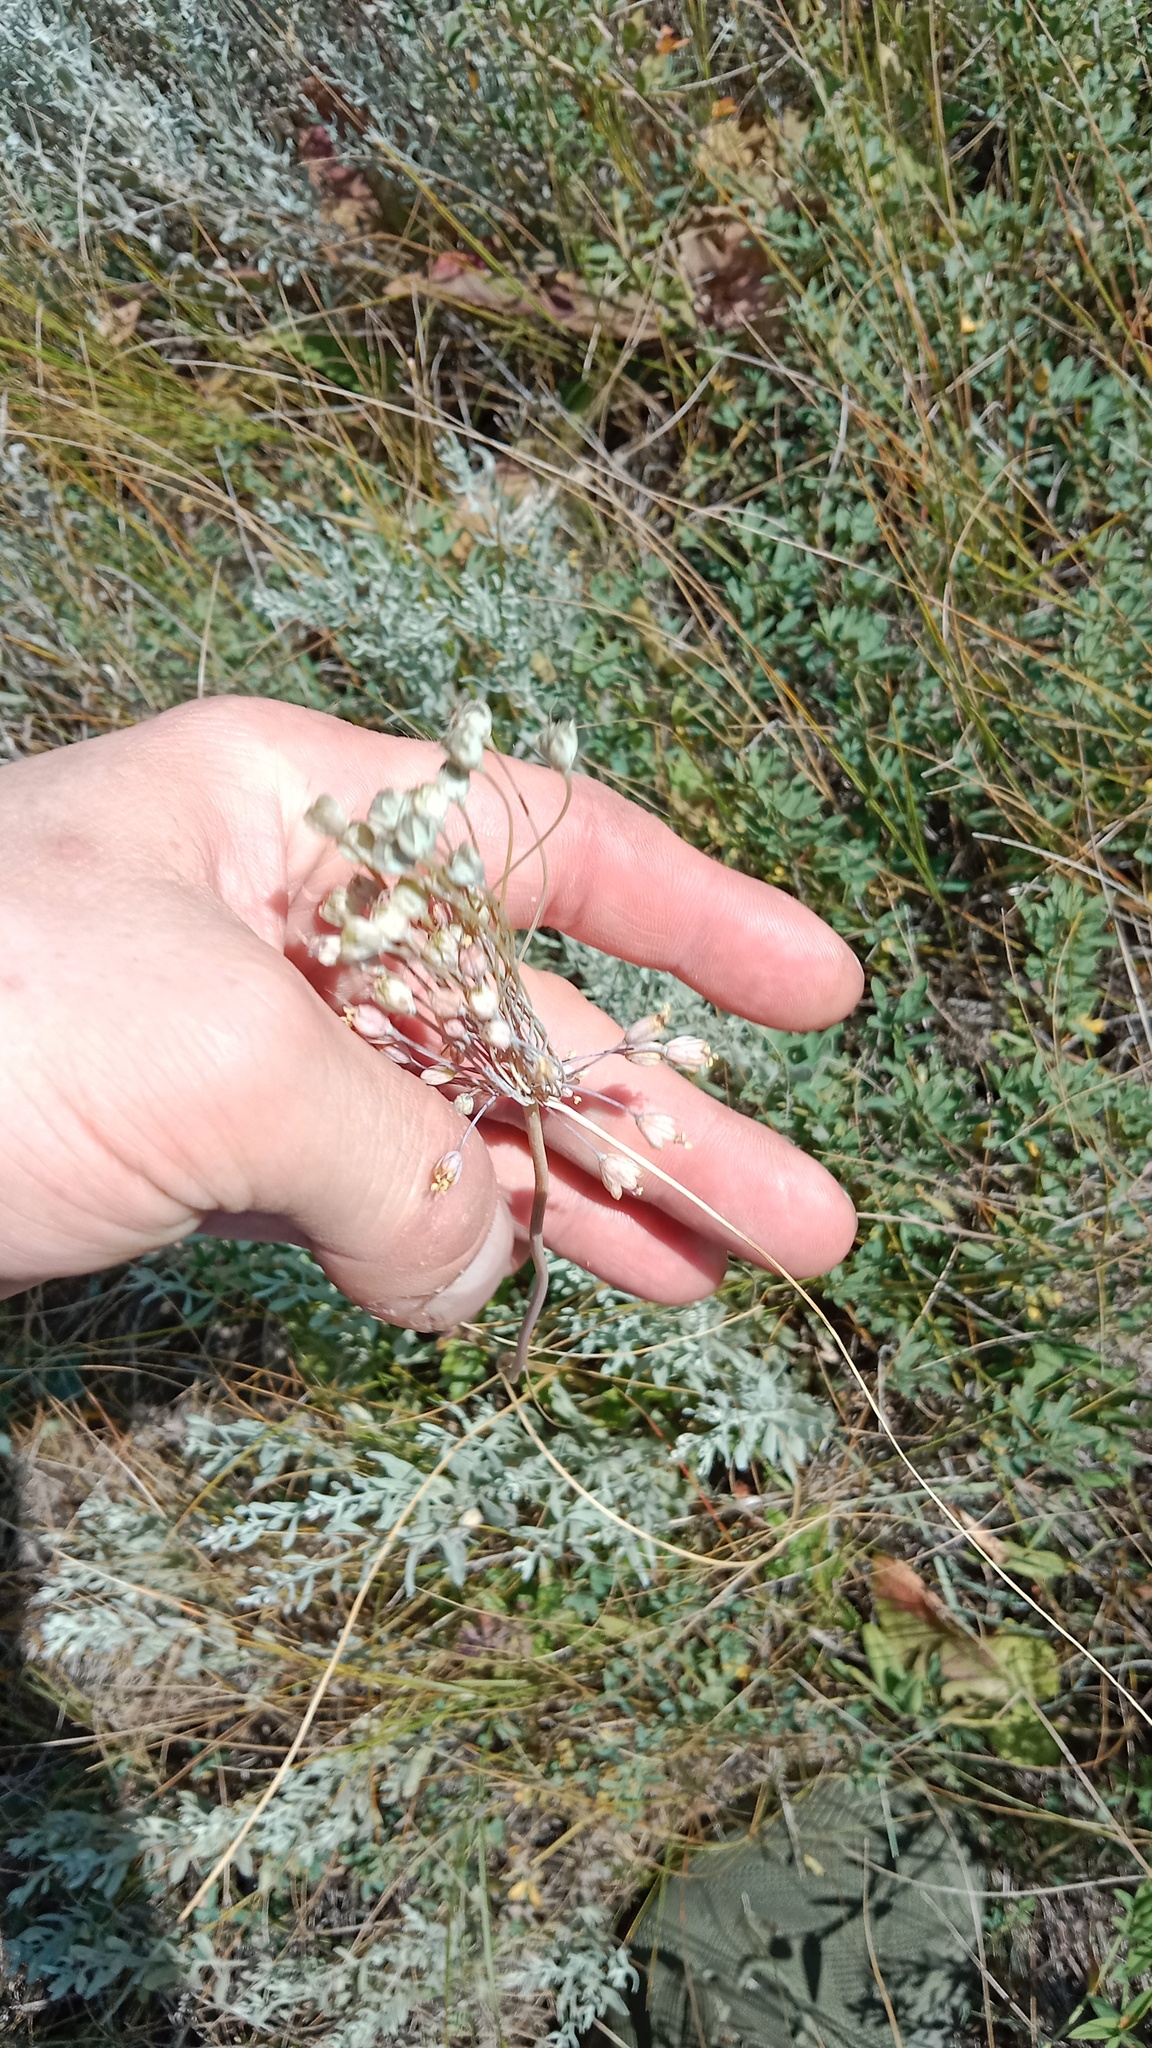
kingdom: Plantae
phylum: Tracheophyta
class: Liliopsida
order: Asparagales
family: Amaryllidaceae
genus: Allium
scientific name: Allium flavum
